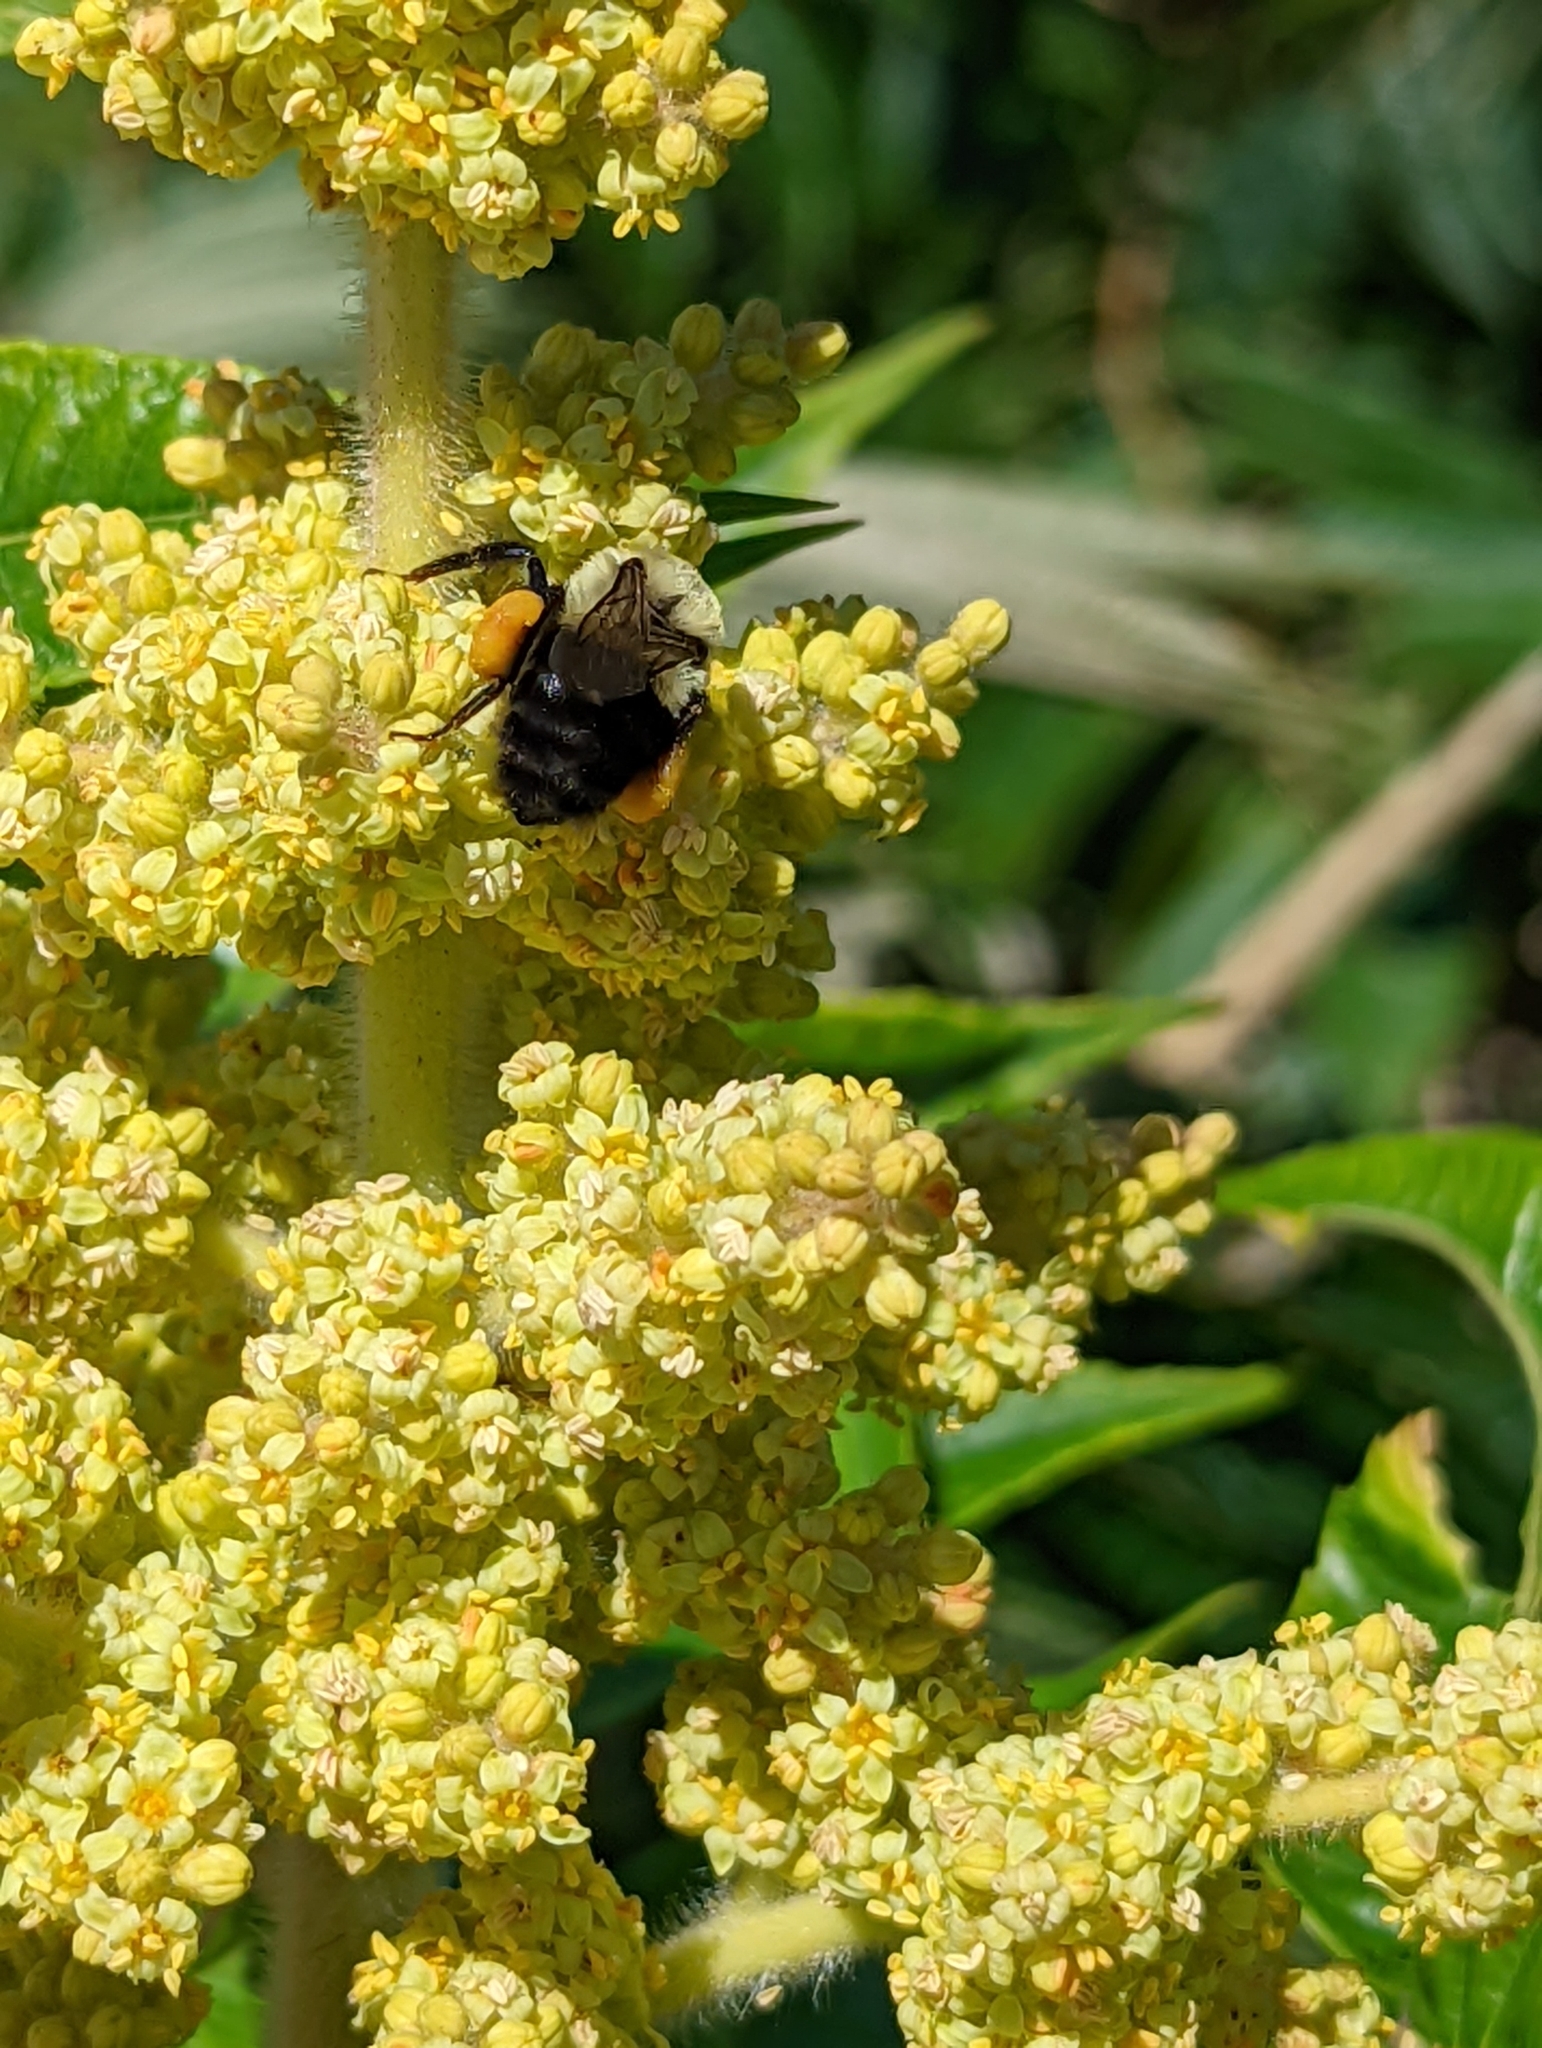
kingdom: Animalia
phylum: Arthropoda
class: Insecta
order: Hymenoptera
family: Apidae
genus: Bombus
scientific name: Bombus impatiens
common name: Common eastern bumble bee
